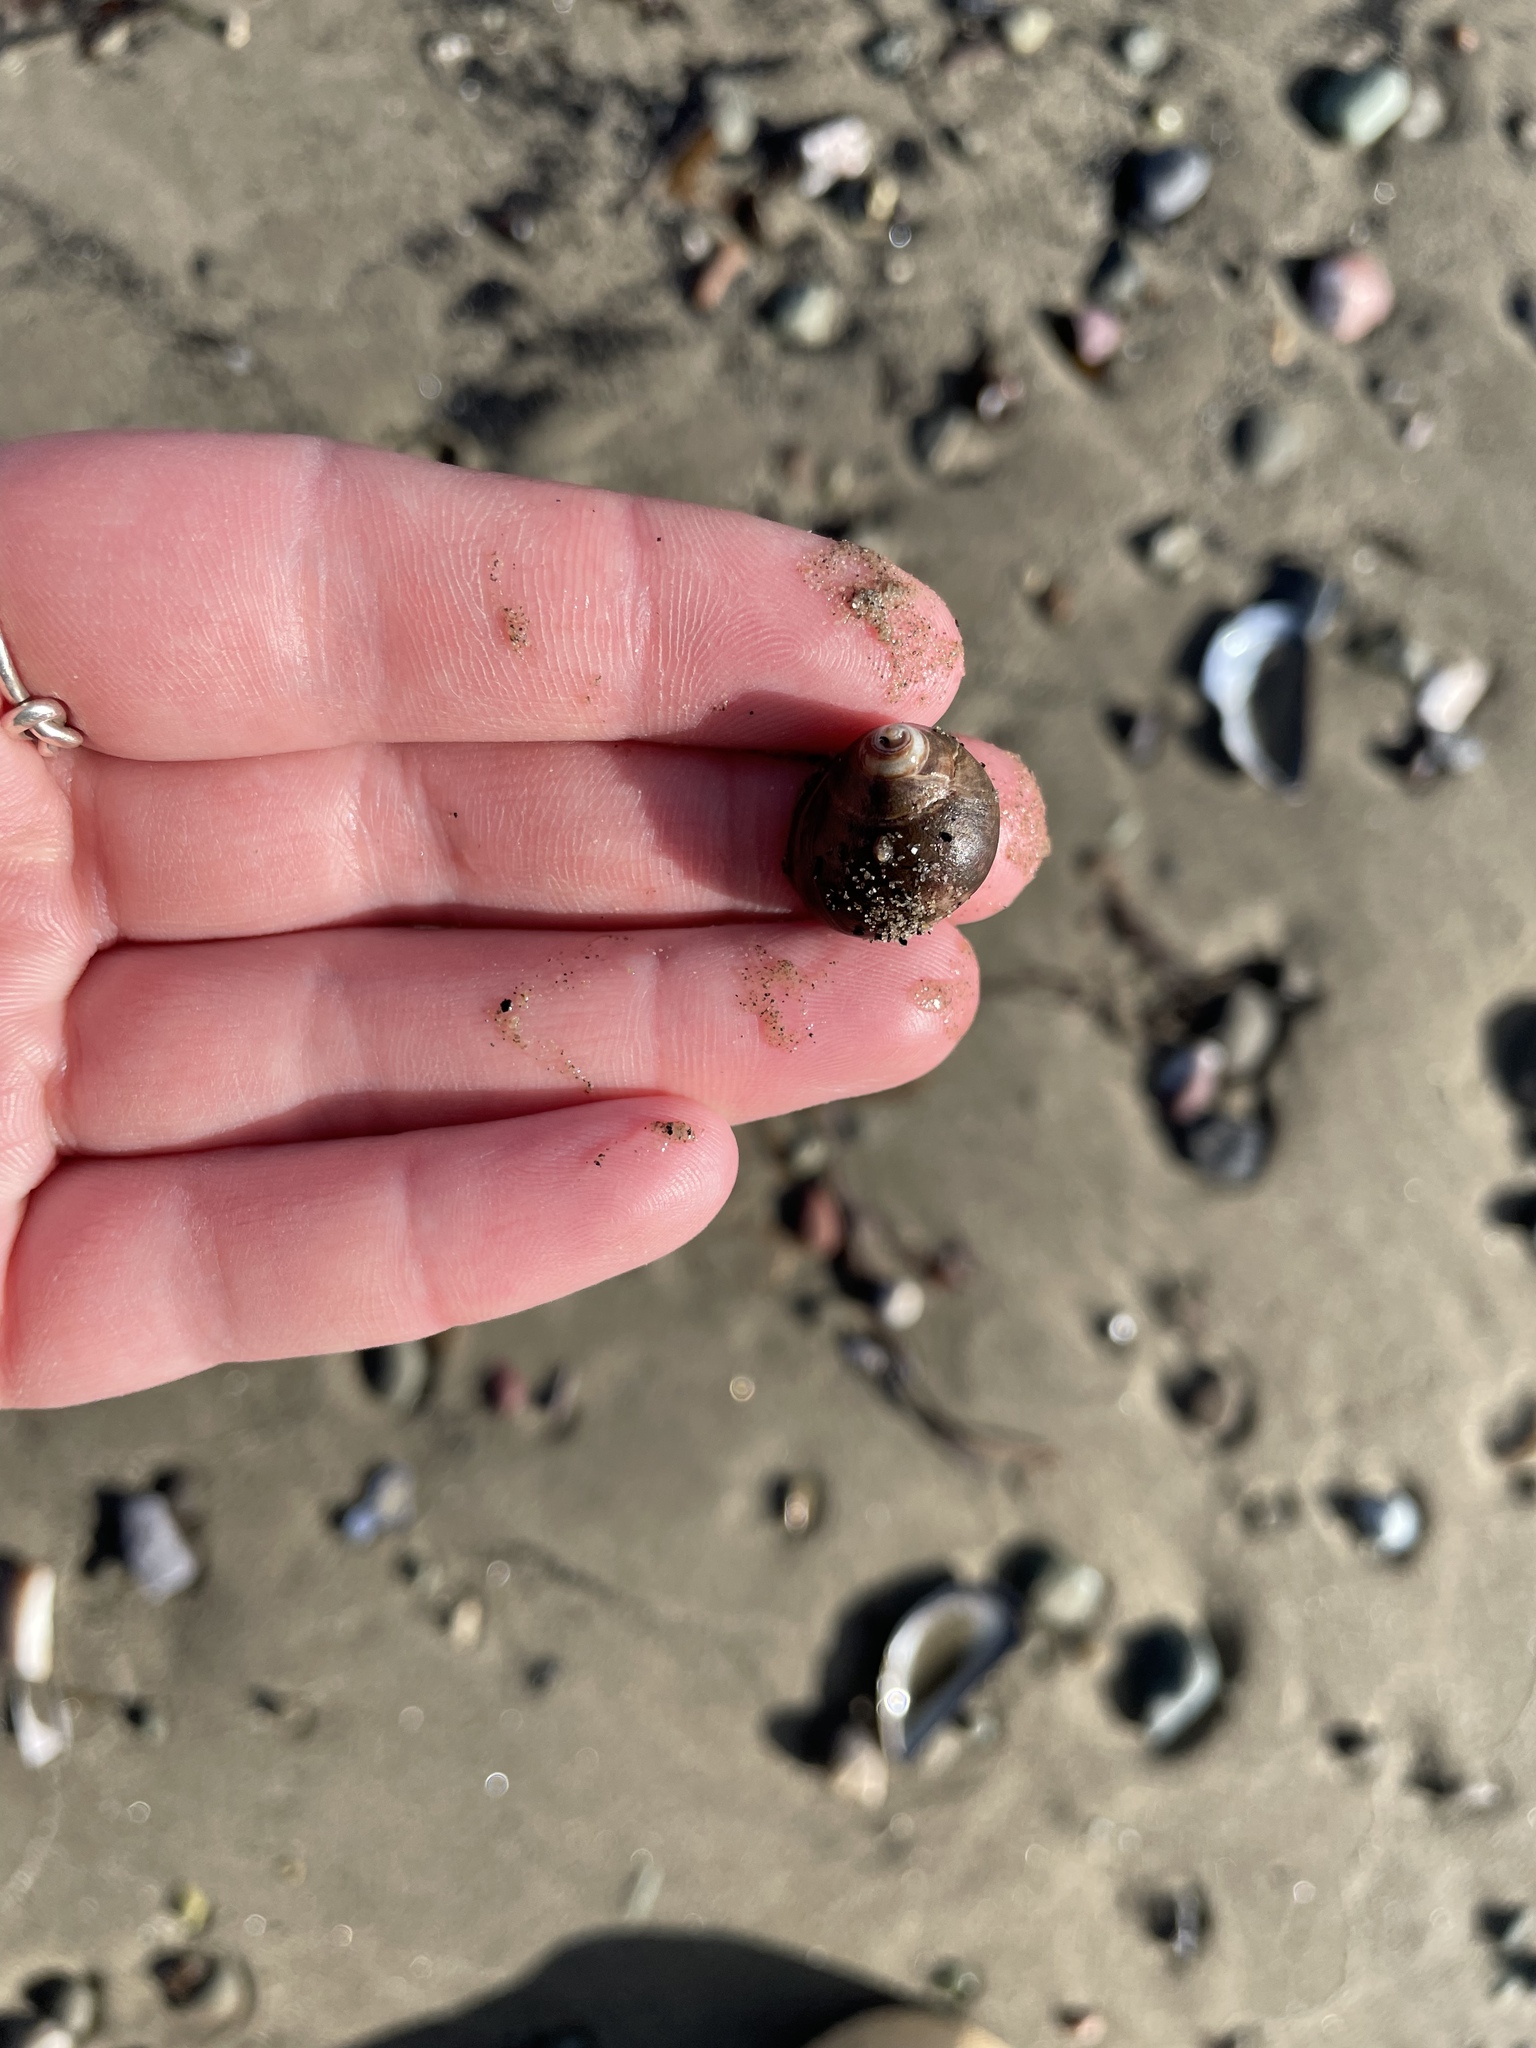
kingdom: Animalia
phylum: Mollusca
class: Gastropoda
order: Littorinimorpha
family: Littorinidae
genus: Littorina
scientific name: Littorina littorea
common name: Common periwinkle
